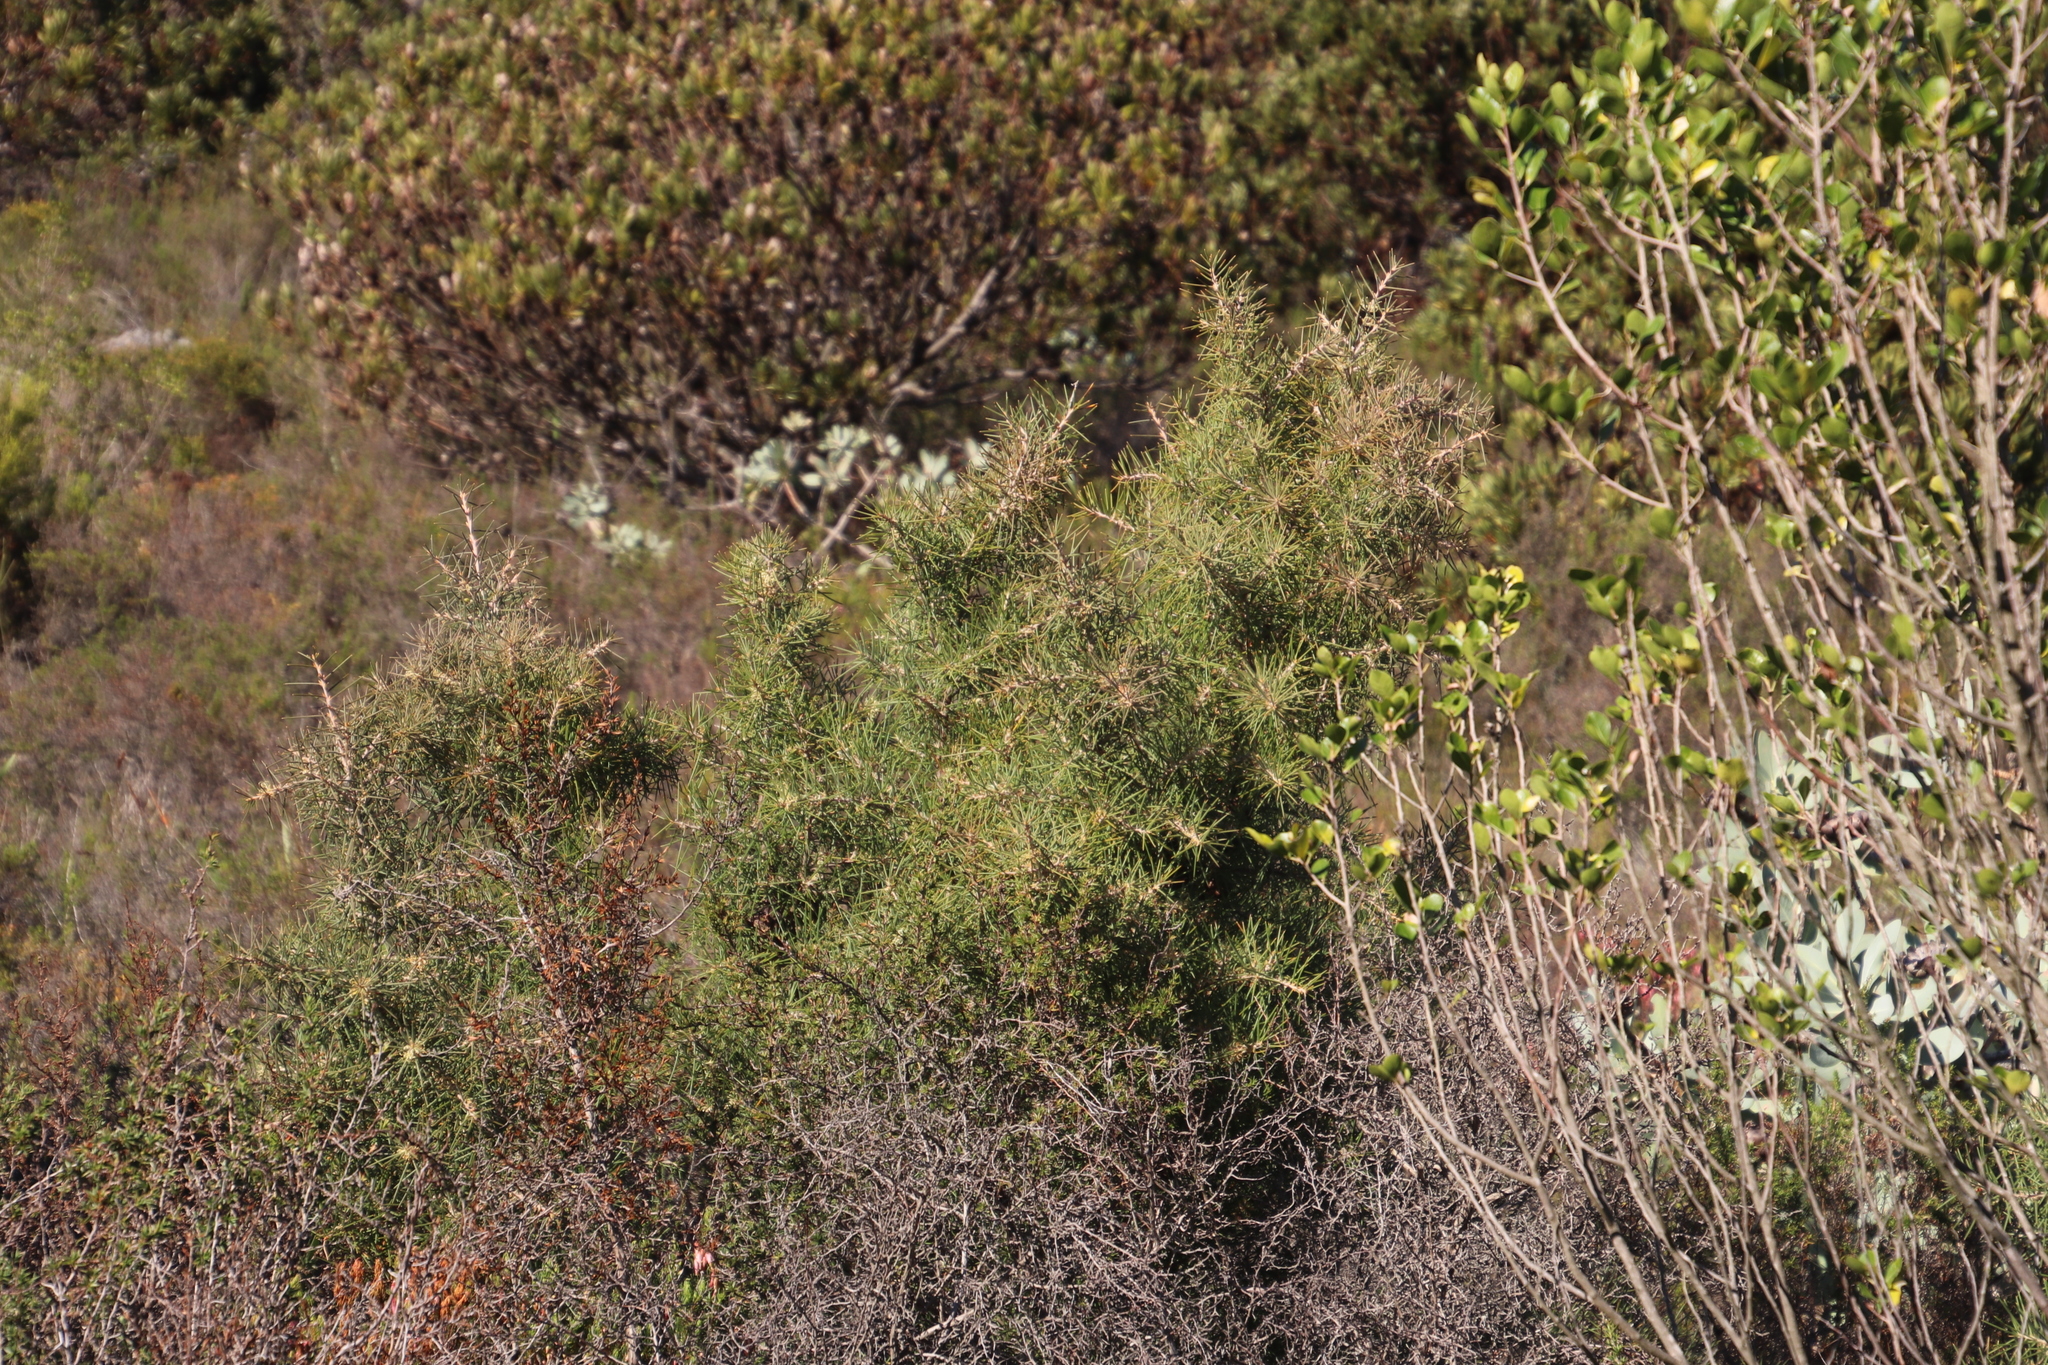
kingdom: Plantae
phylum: Tracheophyta
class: Magnoliopsida
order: Proteales
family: Proteaceae
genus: Hakea
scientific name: Hakea gibbosa
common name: Rock hakea
